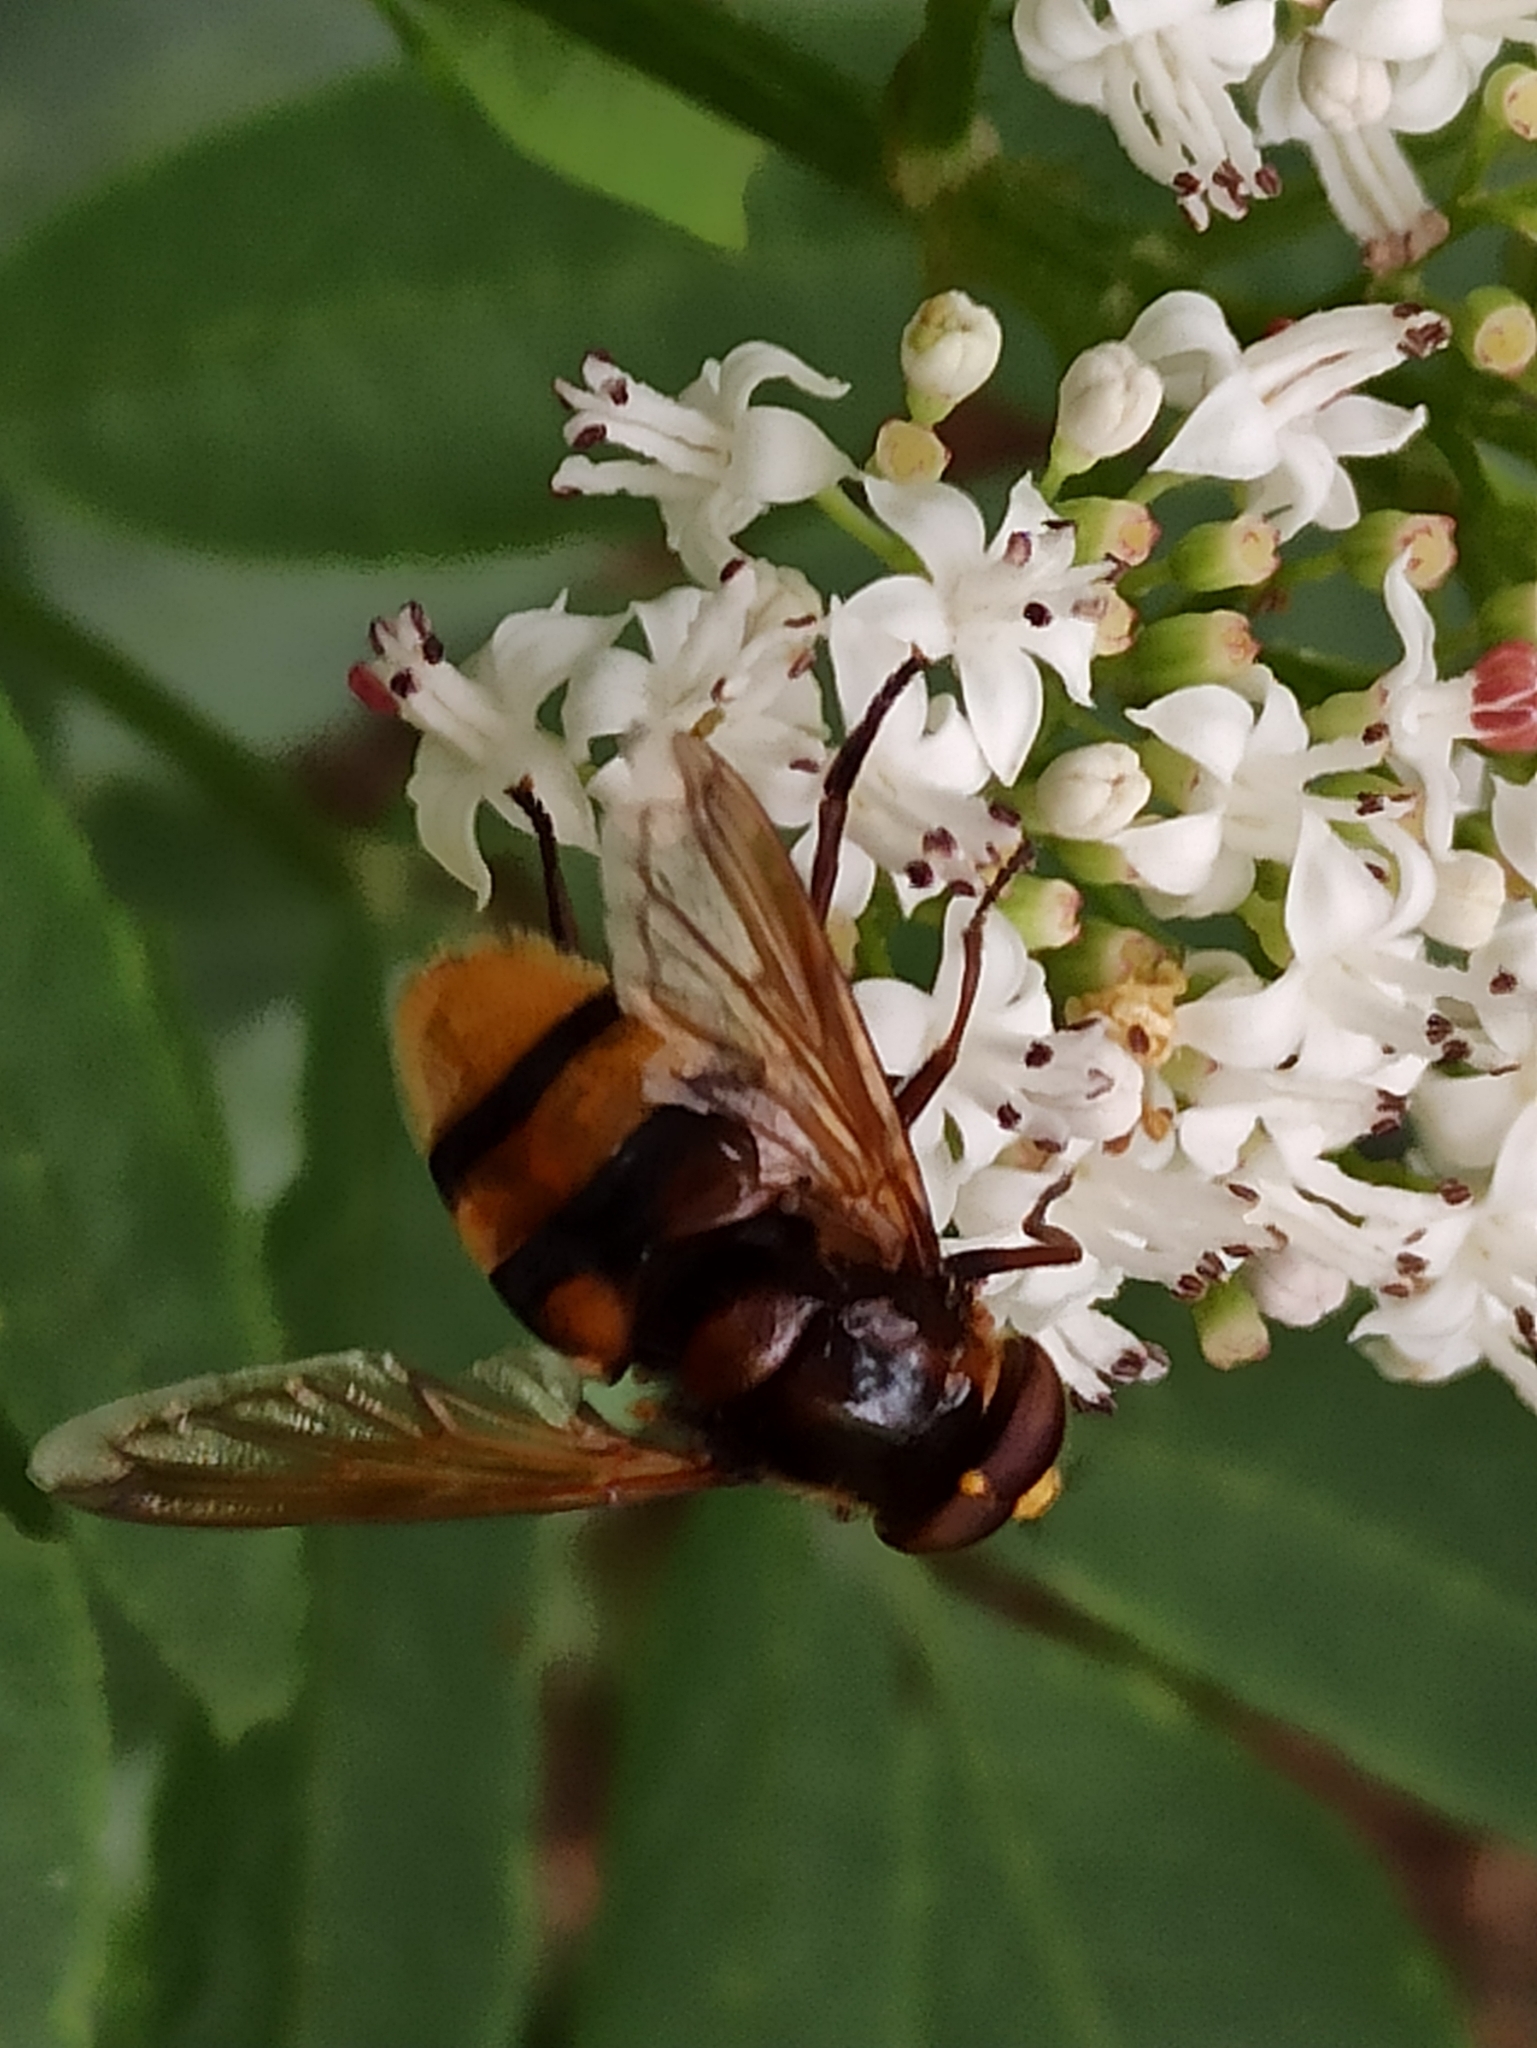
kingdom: Animalia
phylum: Arthropoda
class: Insecta
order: Diptera
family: Syrphidae
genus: Volucella
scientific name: Volucella zonaria
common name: Hornet hoverfly
